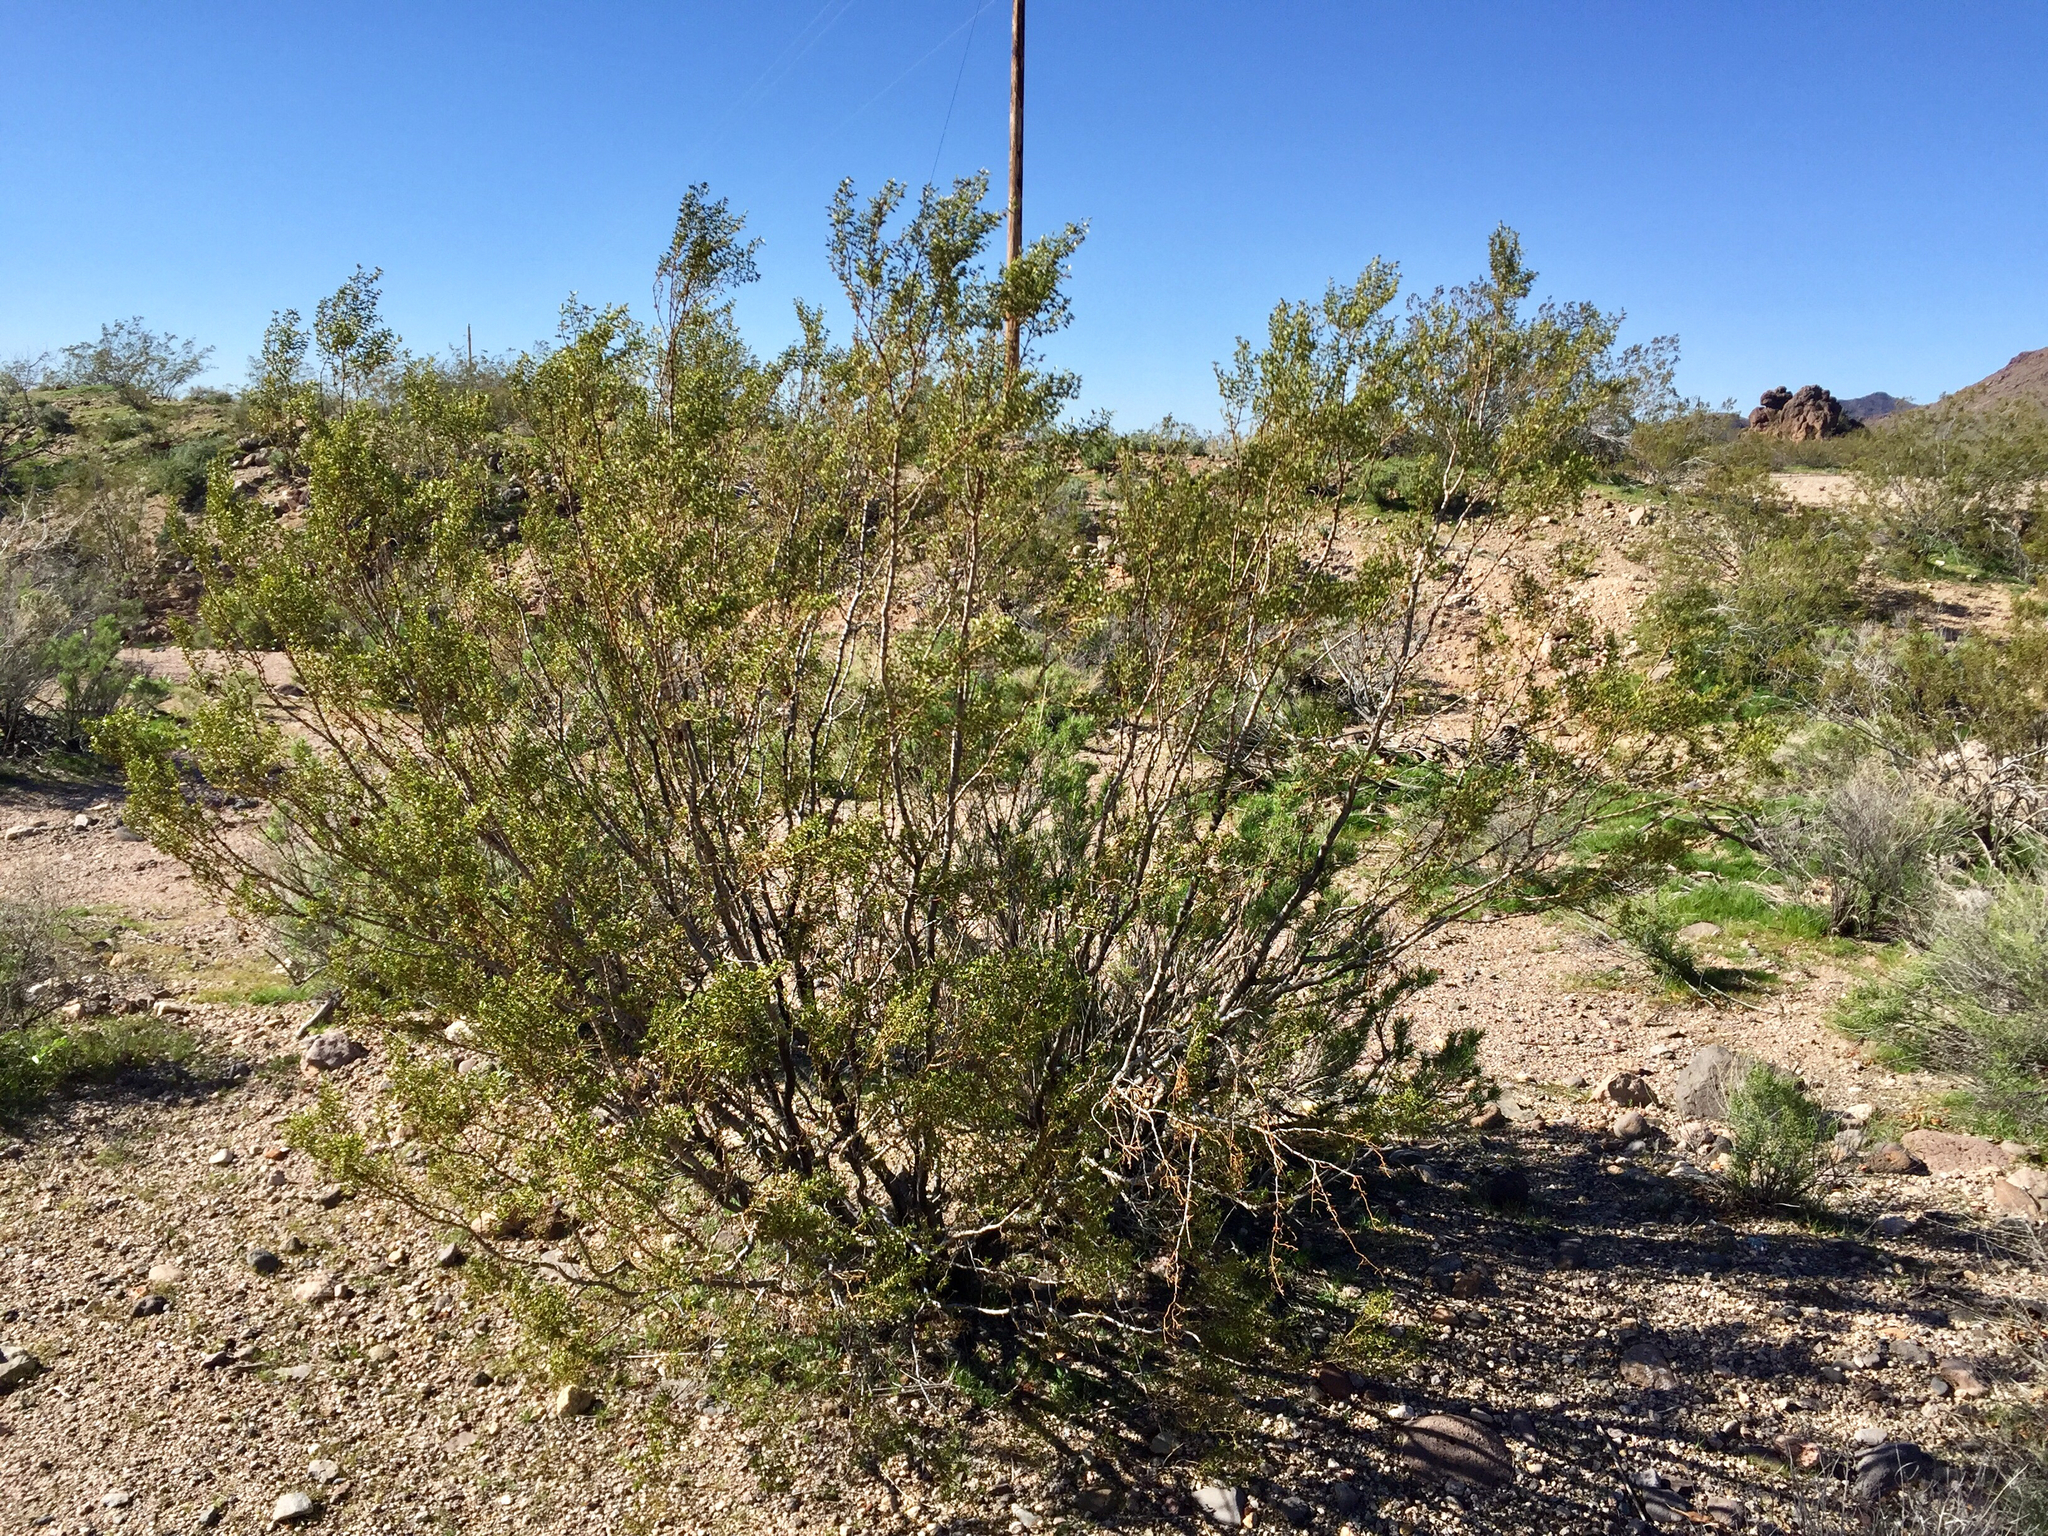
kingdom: Plantae
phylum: Tracheophyta
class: Magnoliopsida
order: Zygophyllales
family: Zygophyllaceae
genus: Larrea
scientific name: Larrea tridentata
